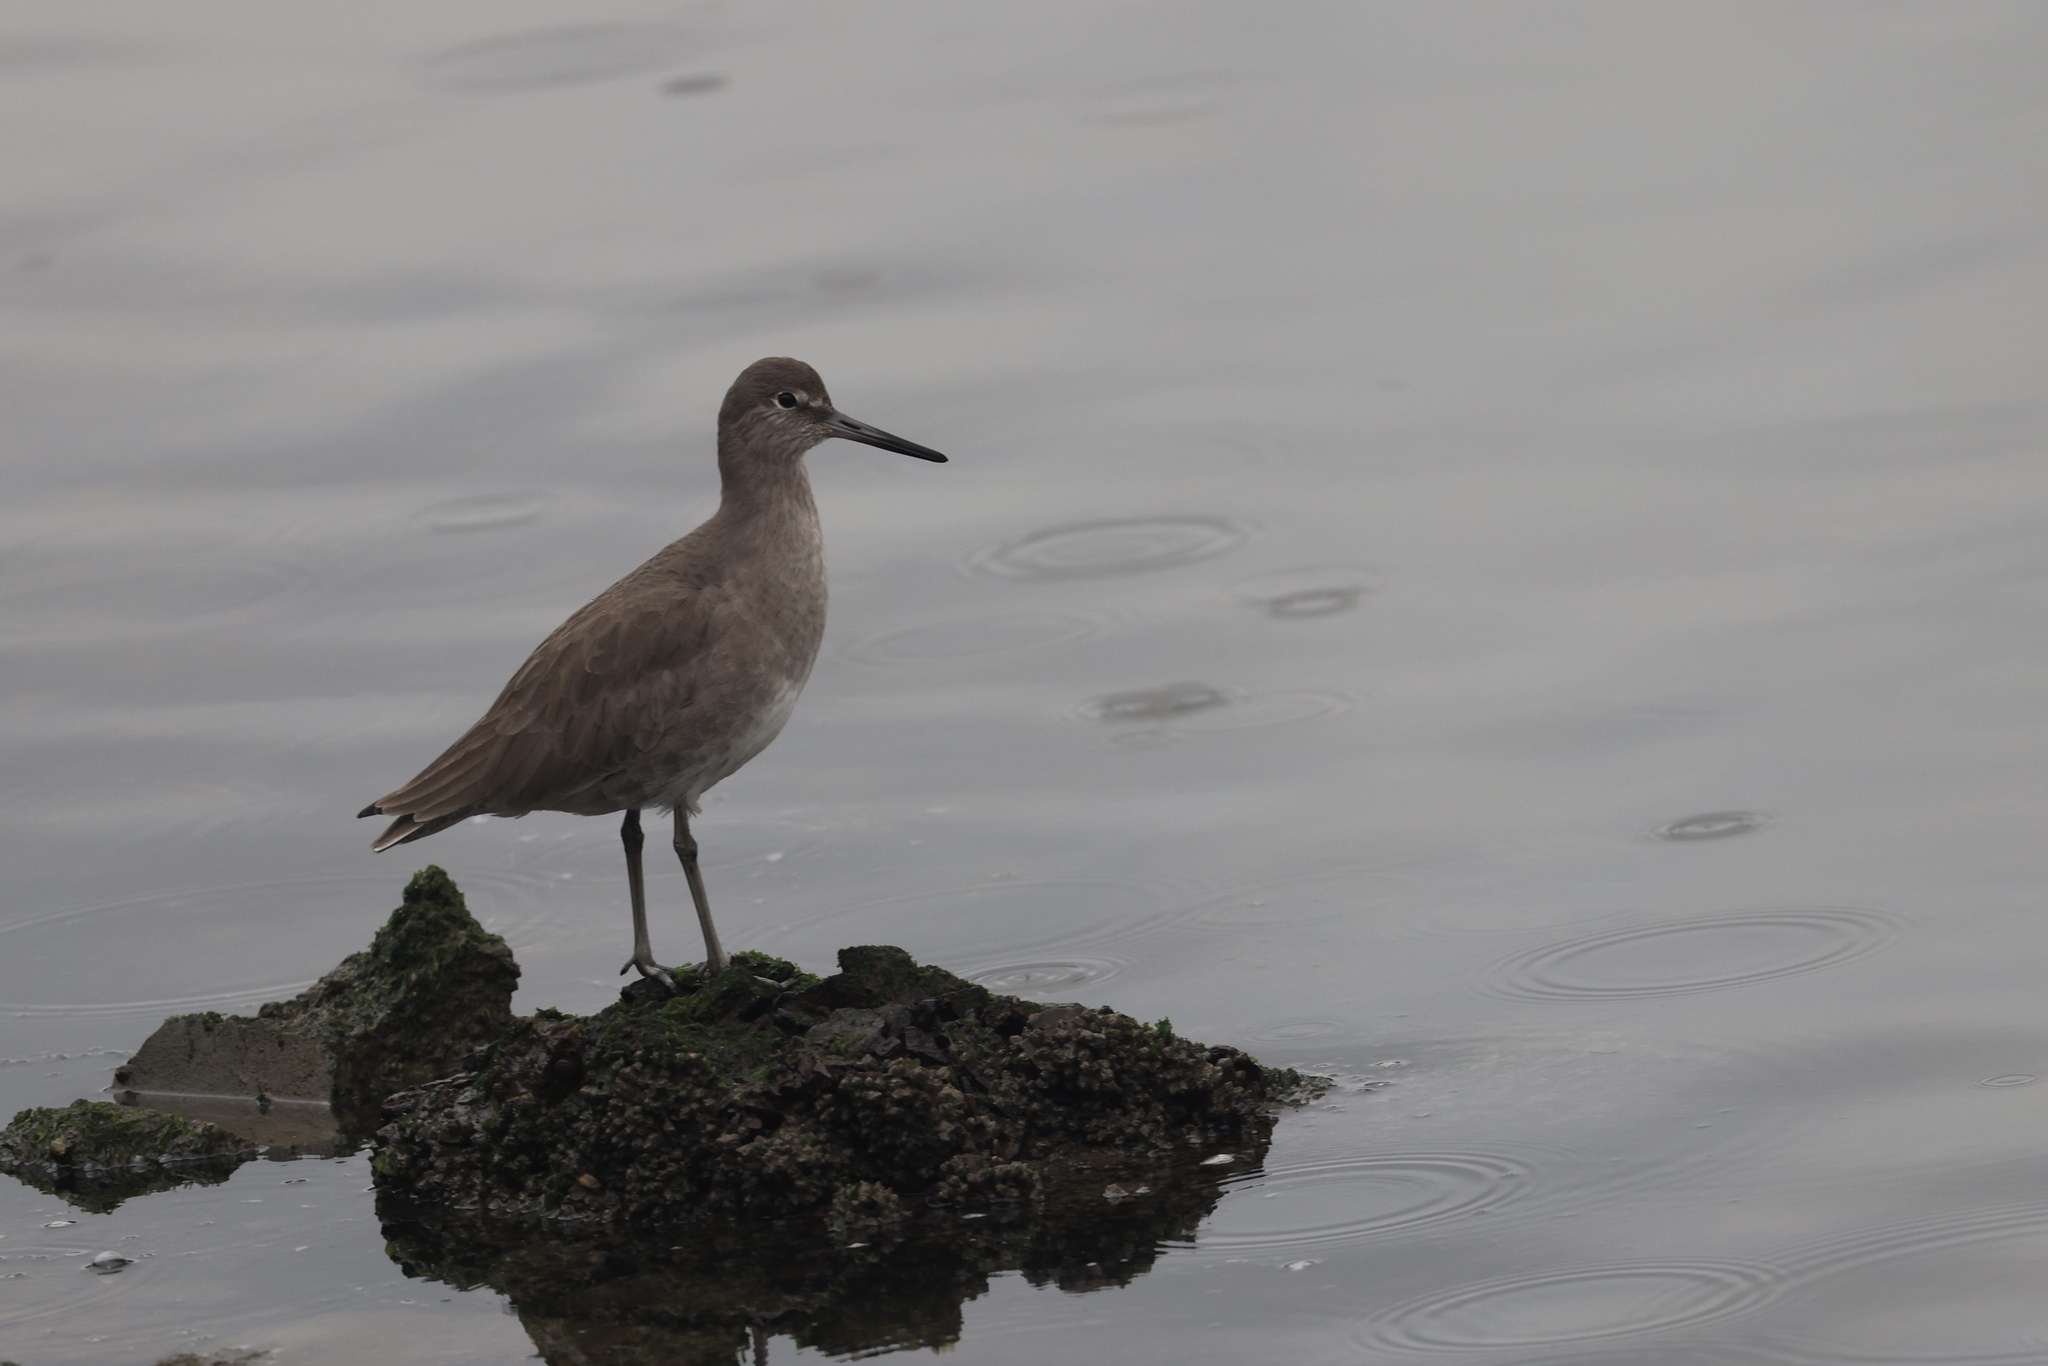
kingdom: Animalia
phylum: Chordata
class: Aves
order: Charadriiformes
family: Scolopacidae
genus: Tringa
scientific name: Tringa semipalmata
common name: Willet
